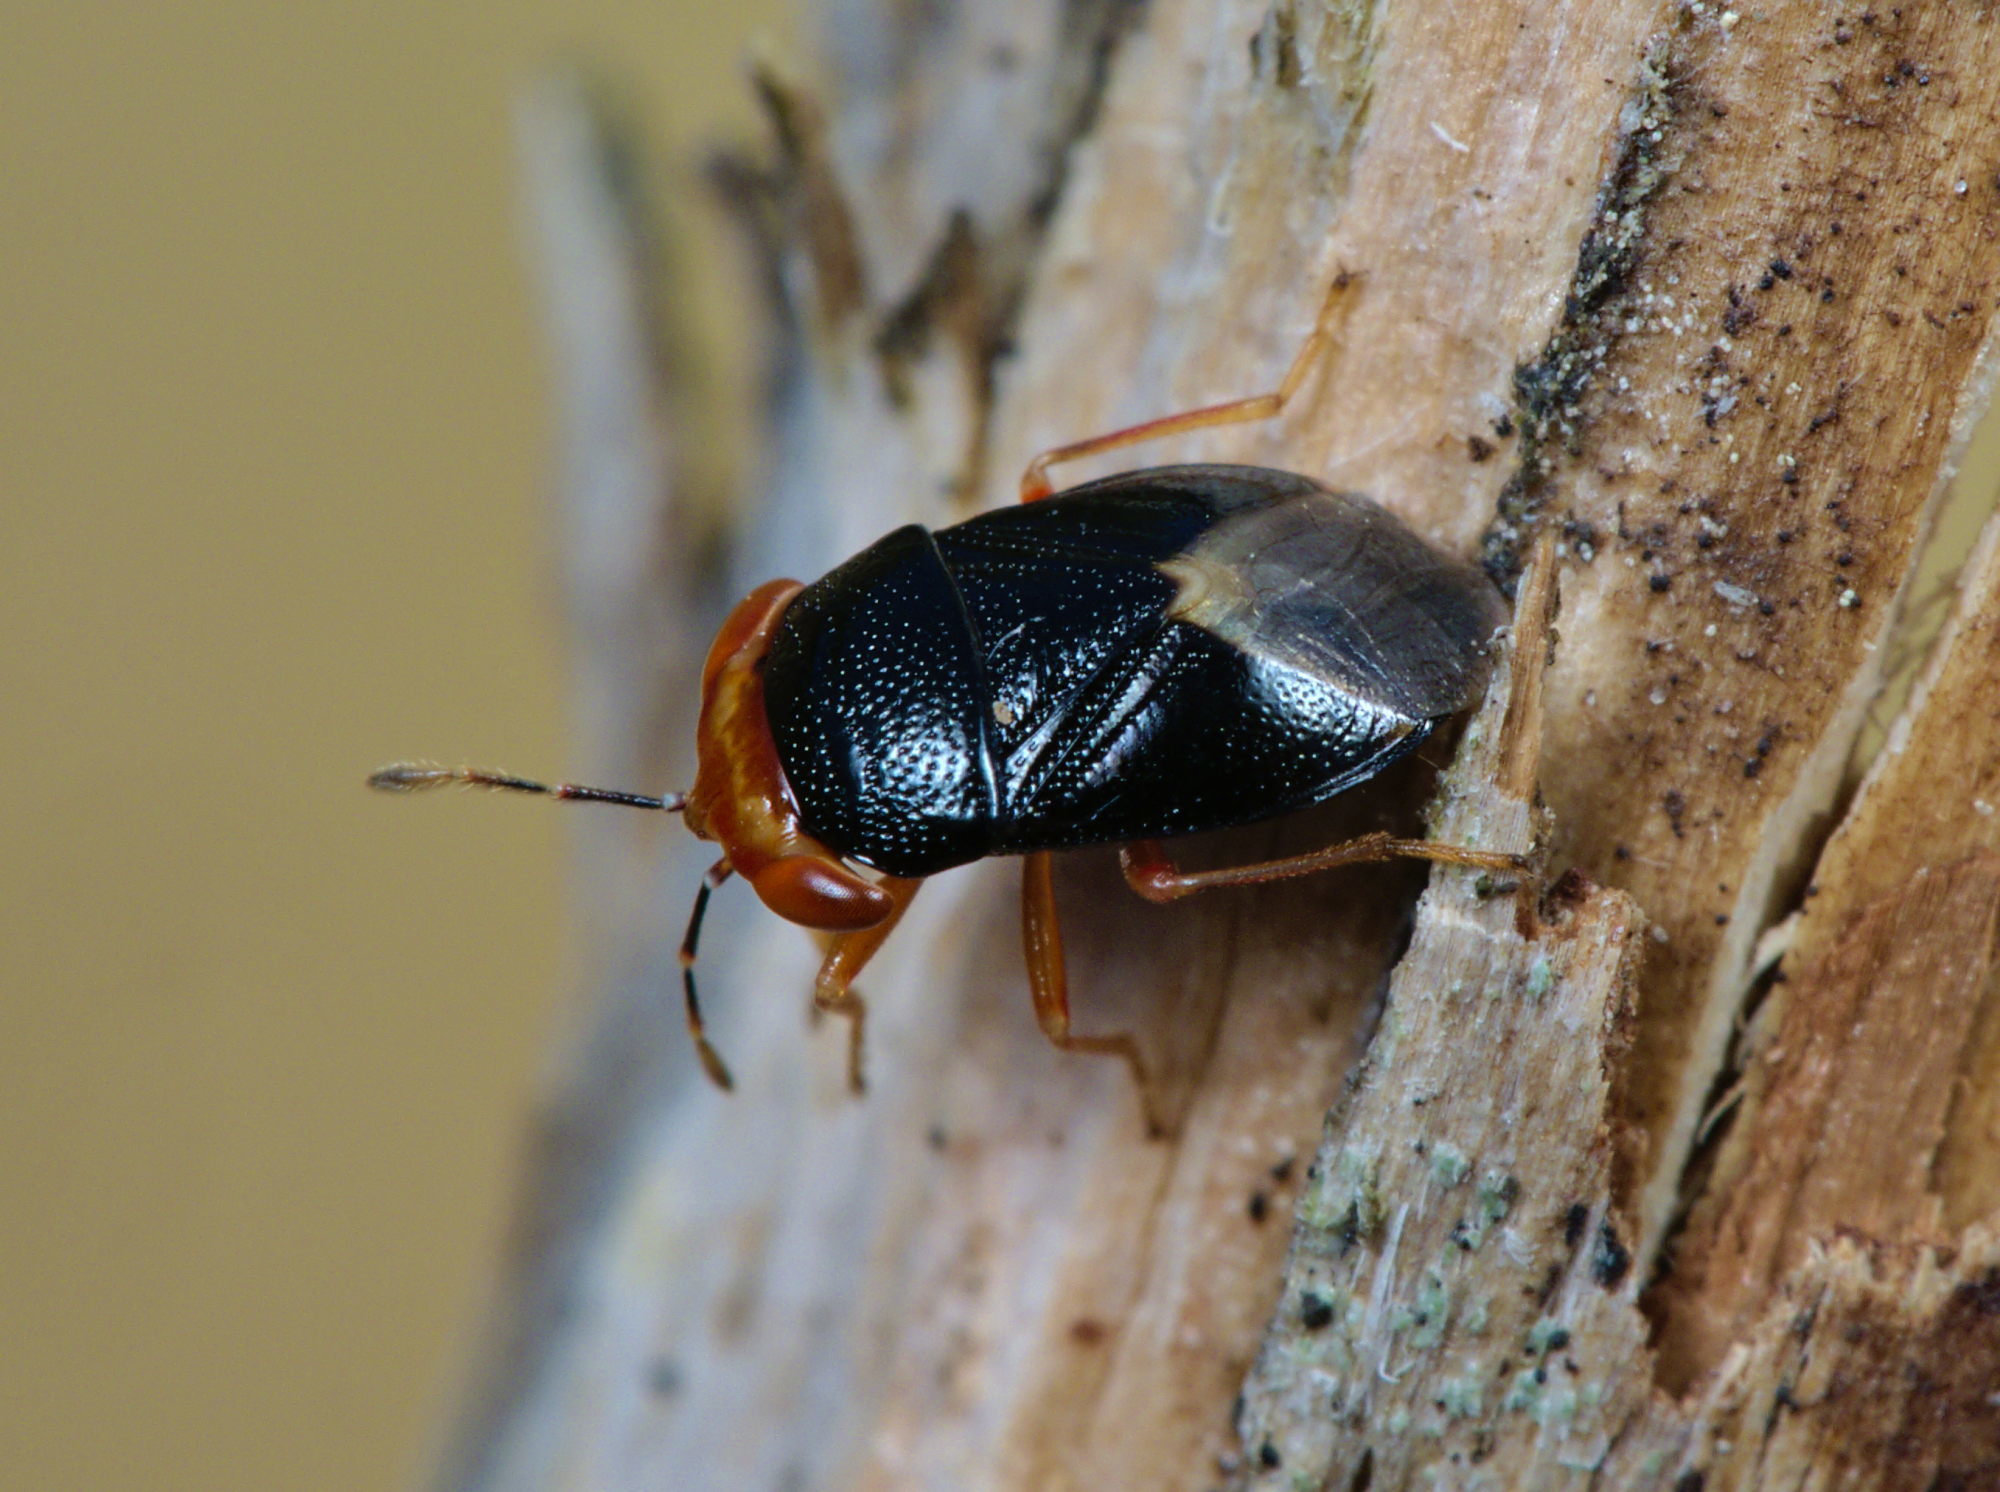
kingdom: Animalia
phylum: Arthropoda
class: Insecta
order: Hemiptera
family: Geocoridae
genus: Geocoris
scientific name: Geocoris erythrocephala
